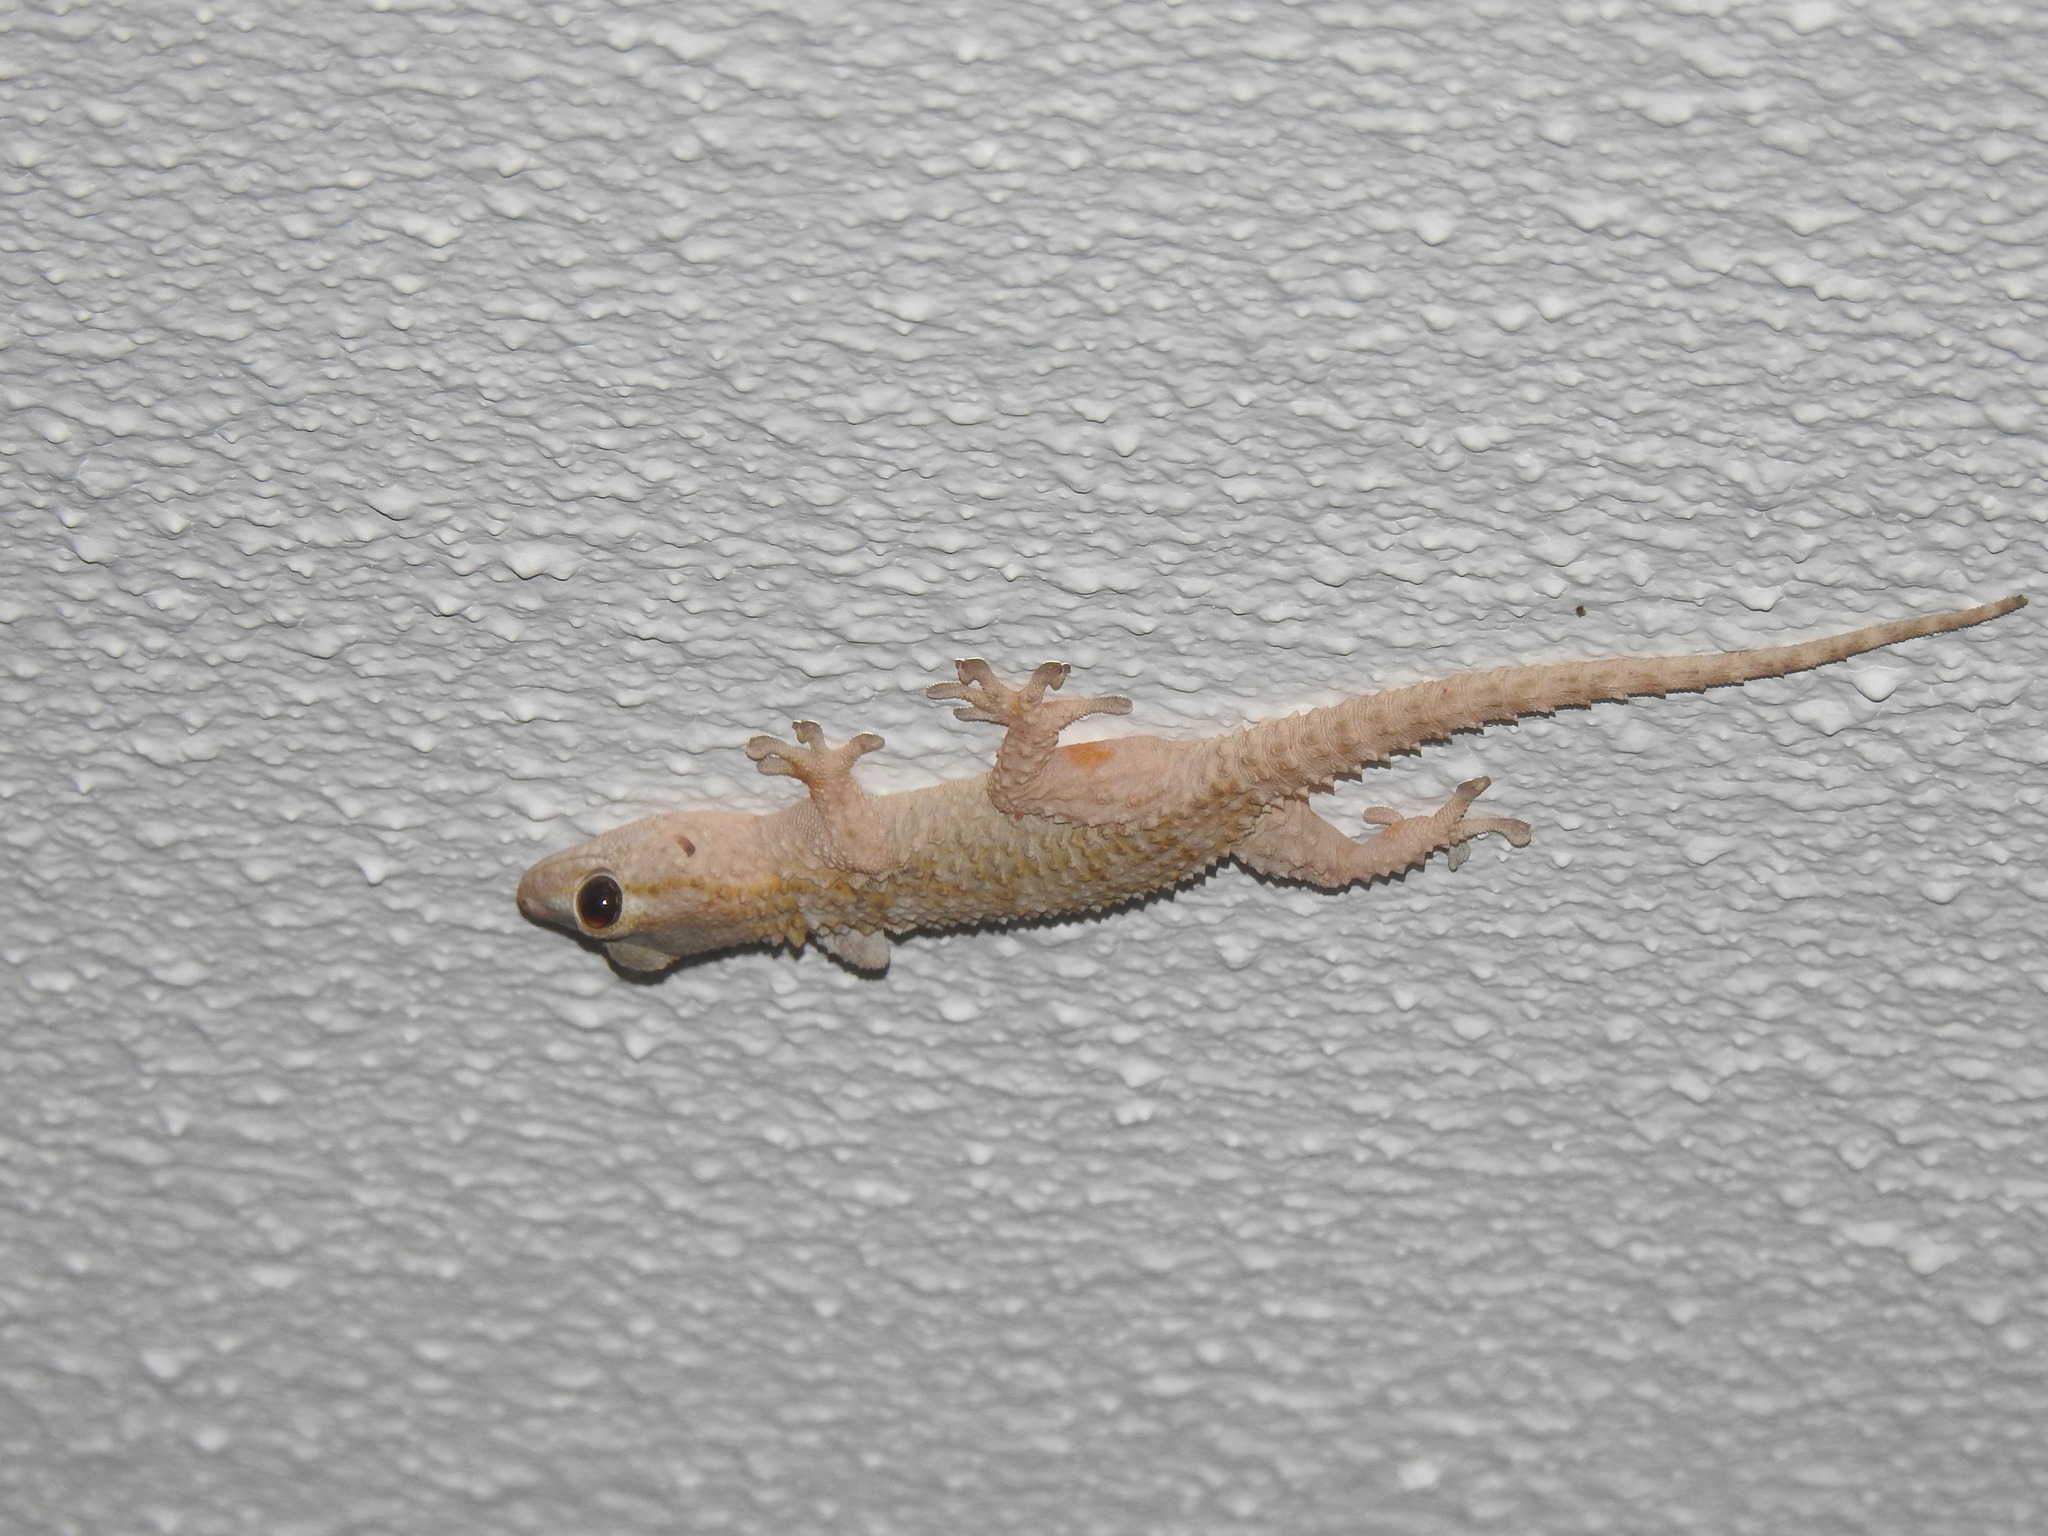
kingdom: Animalia
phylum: Chordata
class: Squamata
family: Phyllodactylidae
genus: Tarentola
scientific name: Tarentola mauritanica
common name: Moorish gecko
